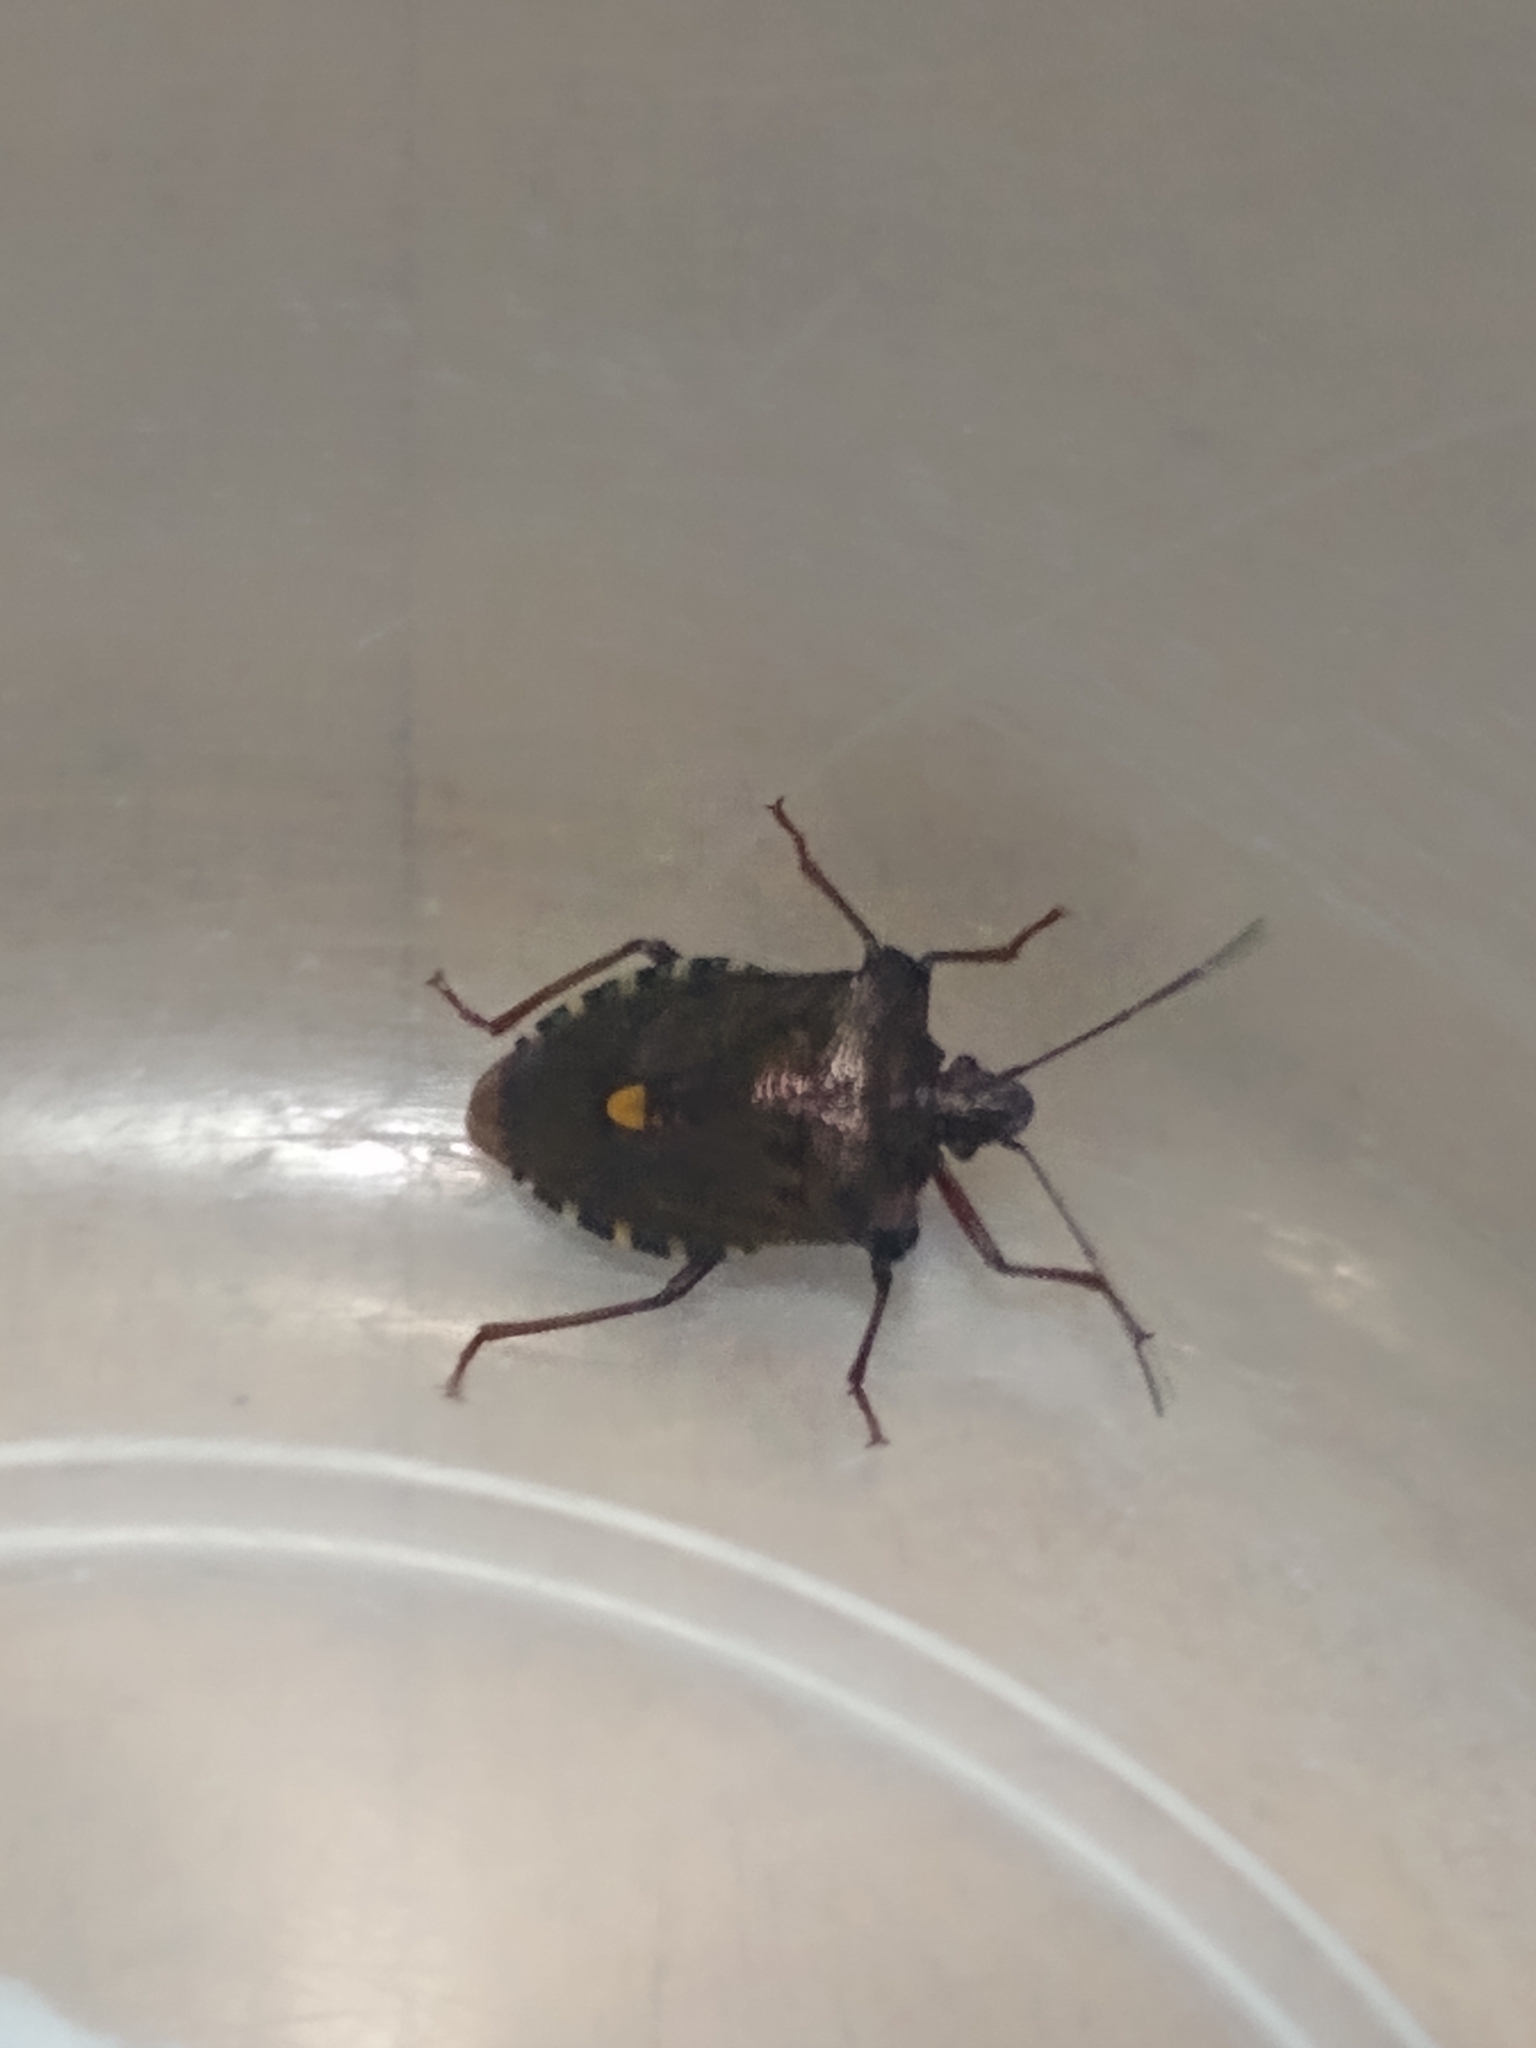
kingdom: Animalia
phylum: Arthropoda
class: Insecta
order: Hemiptera
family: Pentatomidae
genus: Pentatoma
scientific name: Pentatoma rufipes
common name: Forest bug
